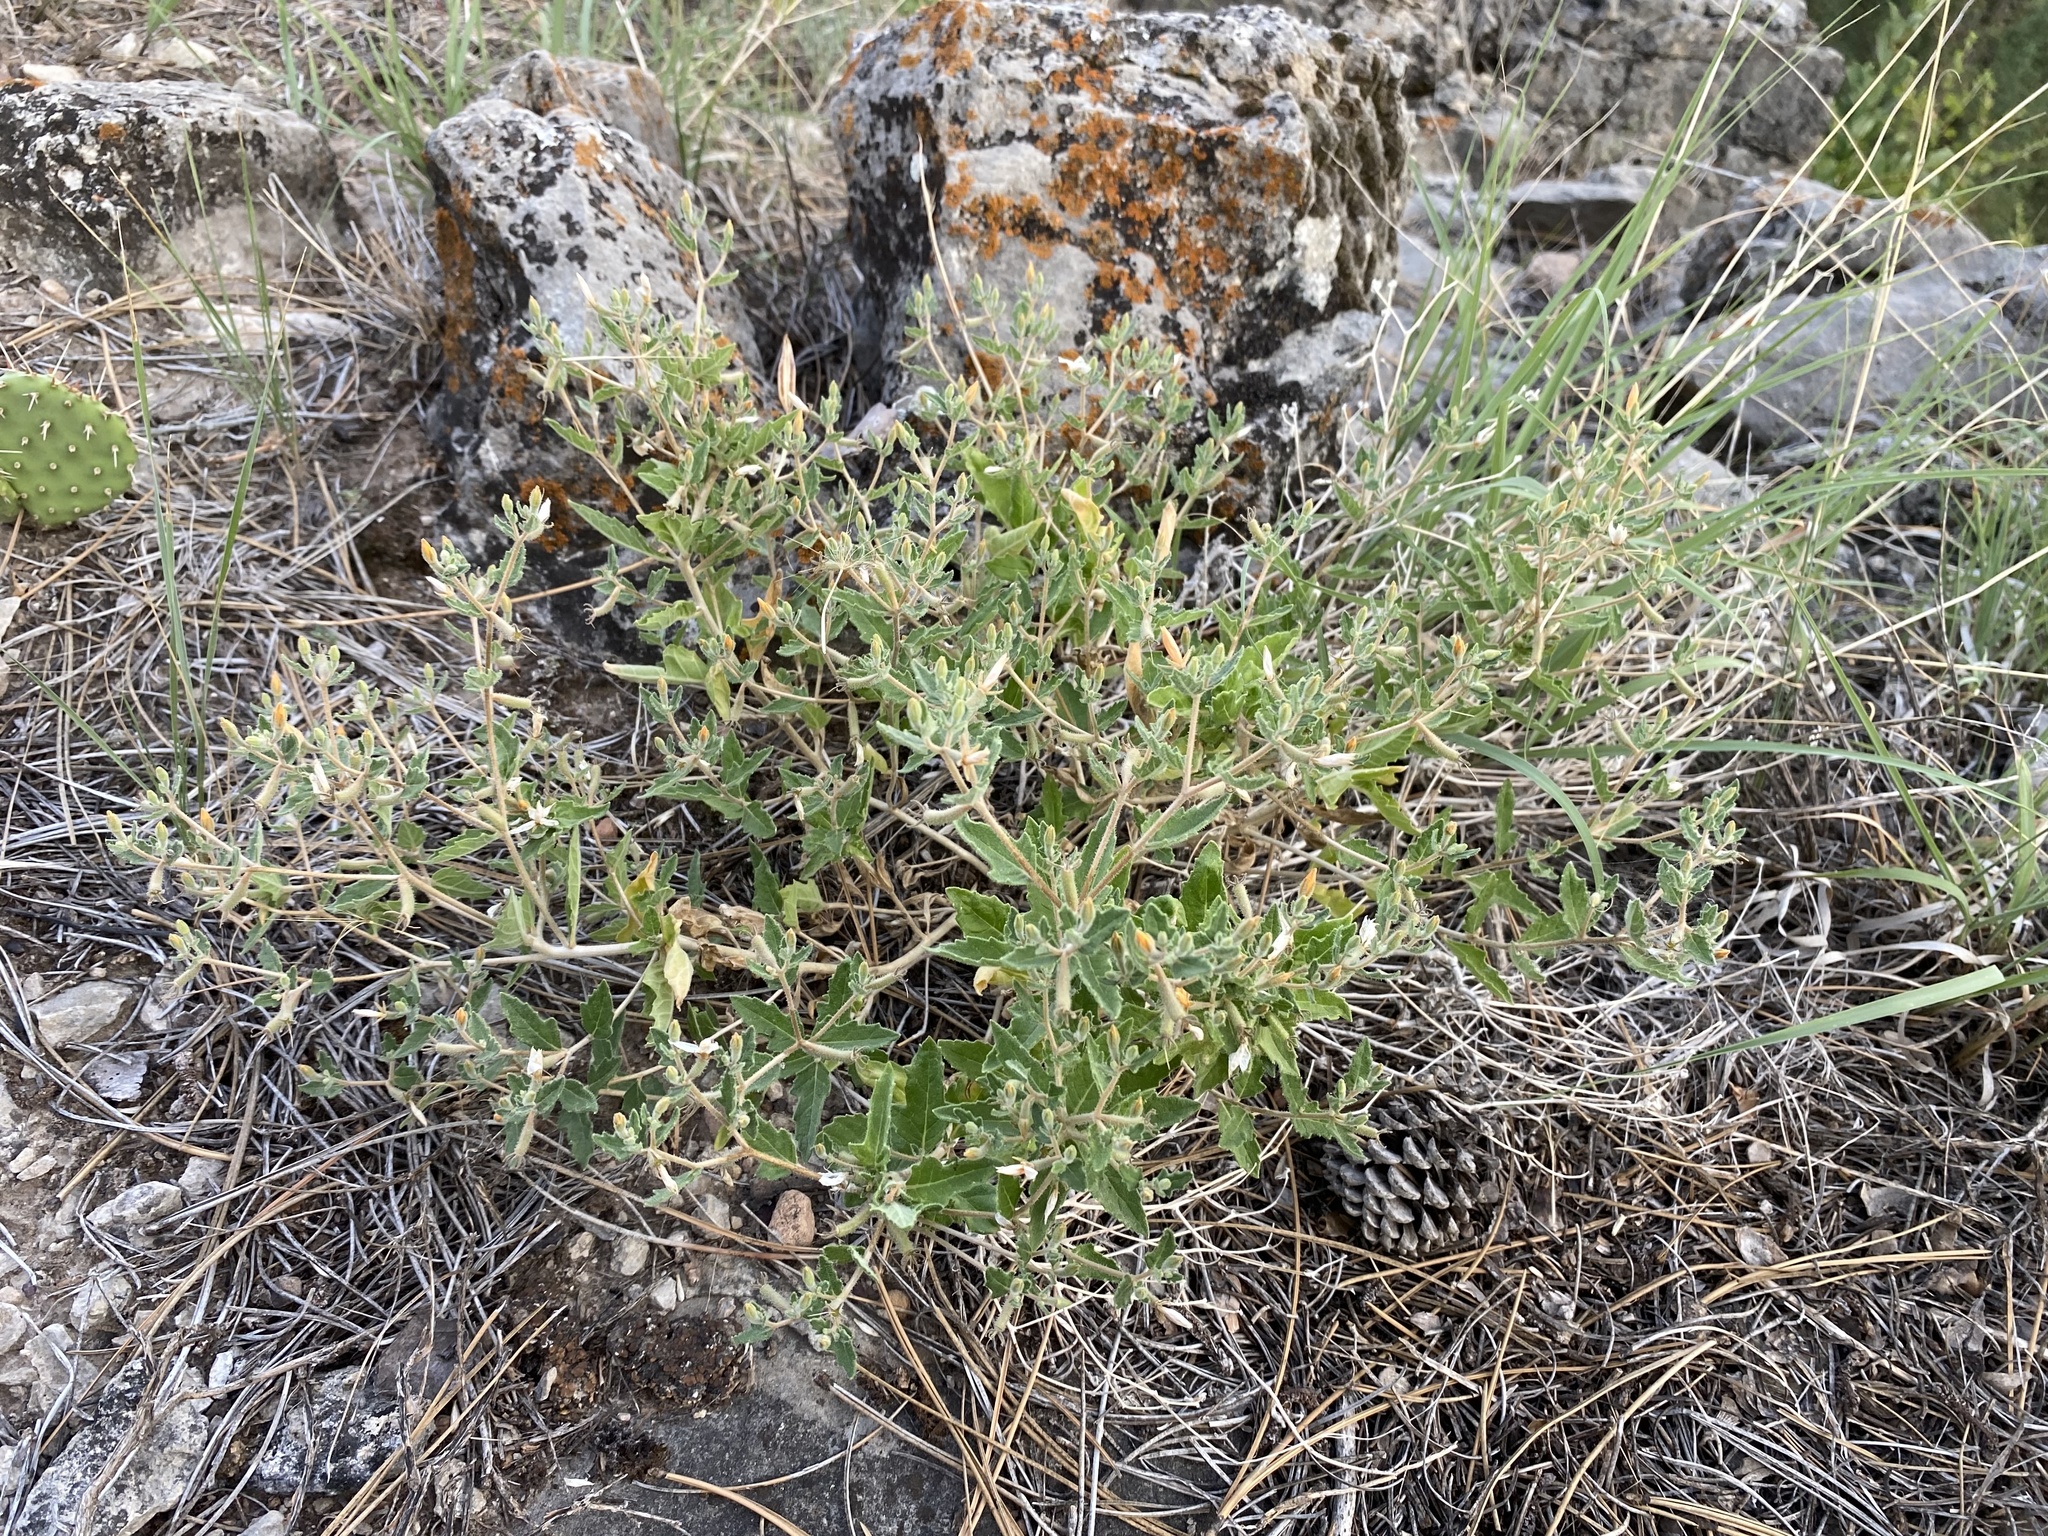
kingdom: Plantae
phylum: Tracheophyta
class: Magnoliopsida
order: Cornales
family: Loasaceae
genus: Mentzelia
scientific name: Mentzelia oligosperma
